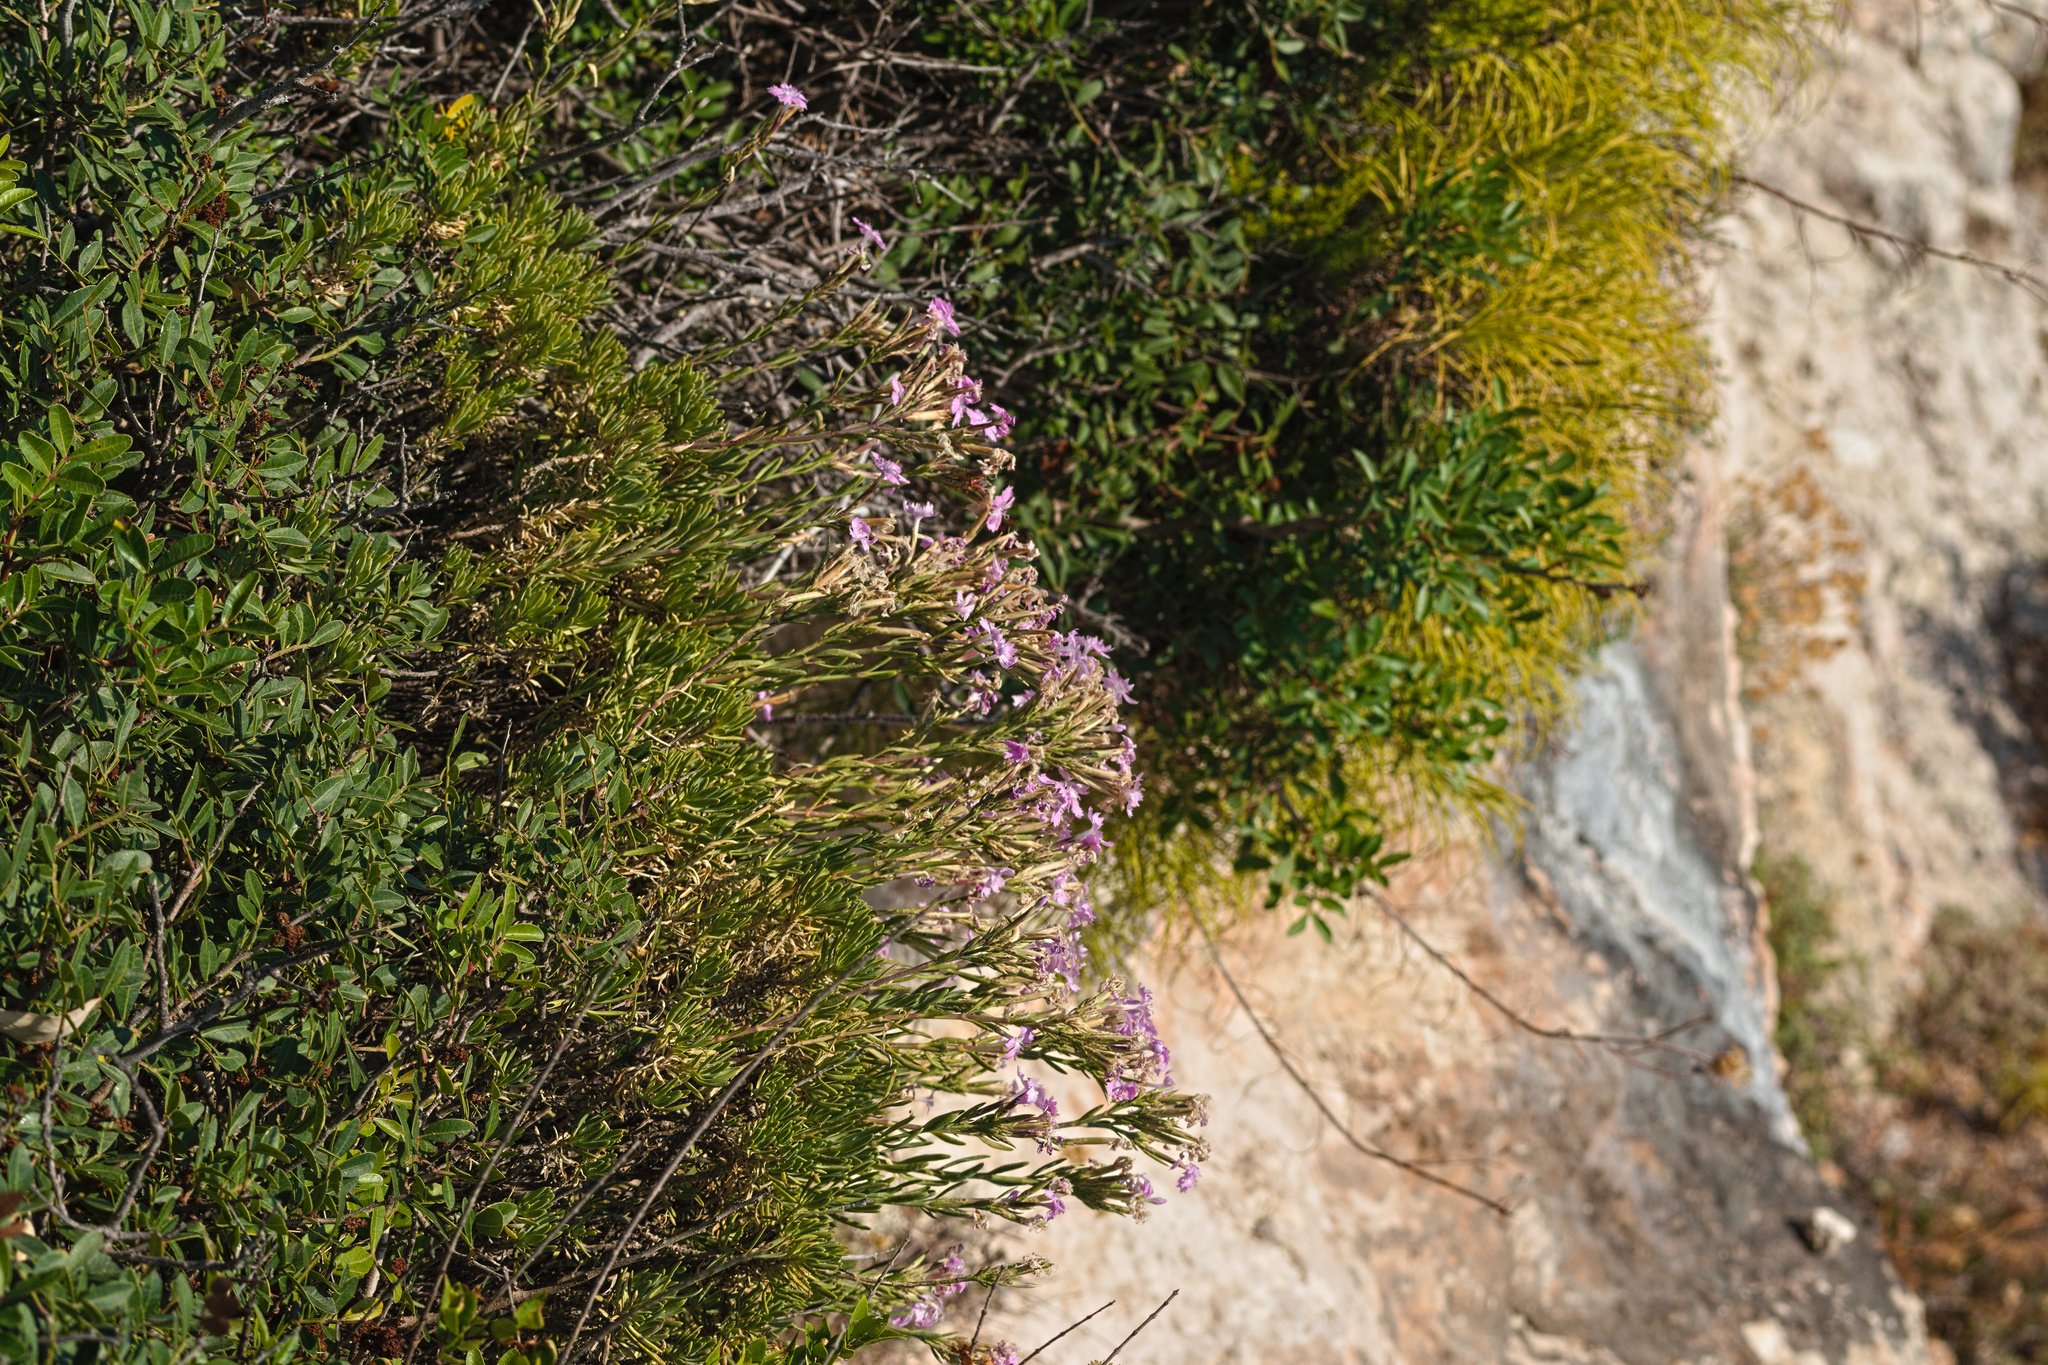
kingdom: Plantae
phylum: Tracheophyta
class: Magnoliopsida
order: Caryophyllales
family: Caryophyllaceae
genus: Dianthus
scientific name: Dianthus fruticosus
